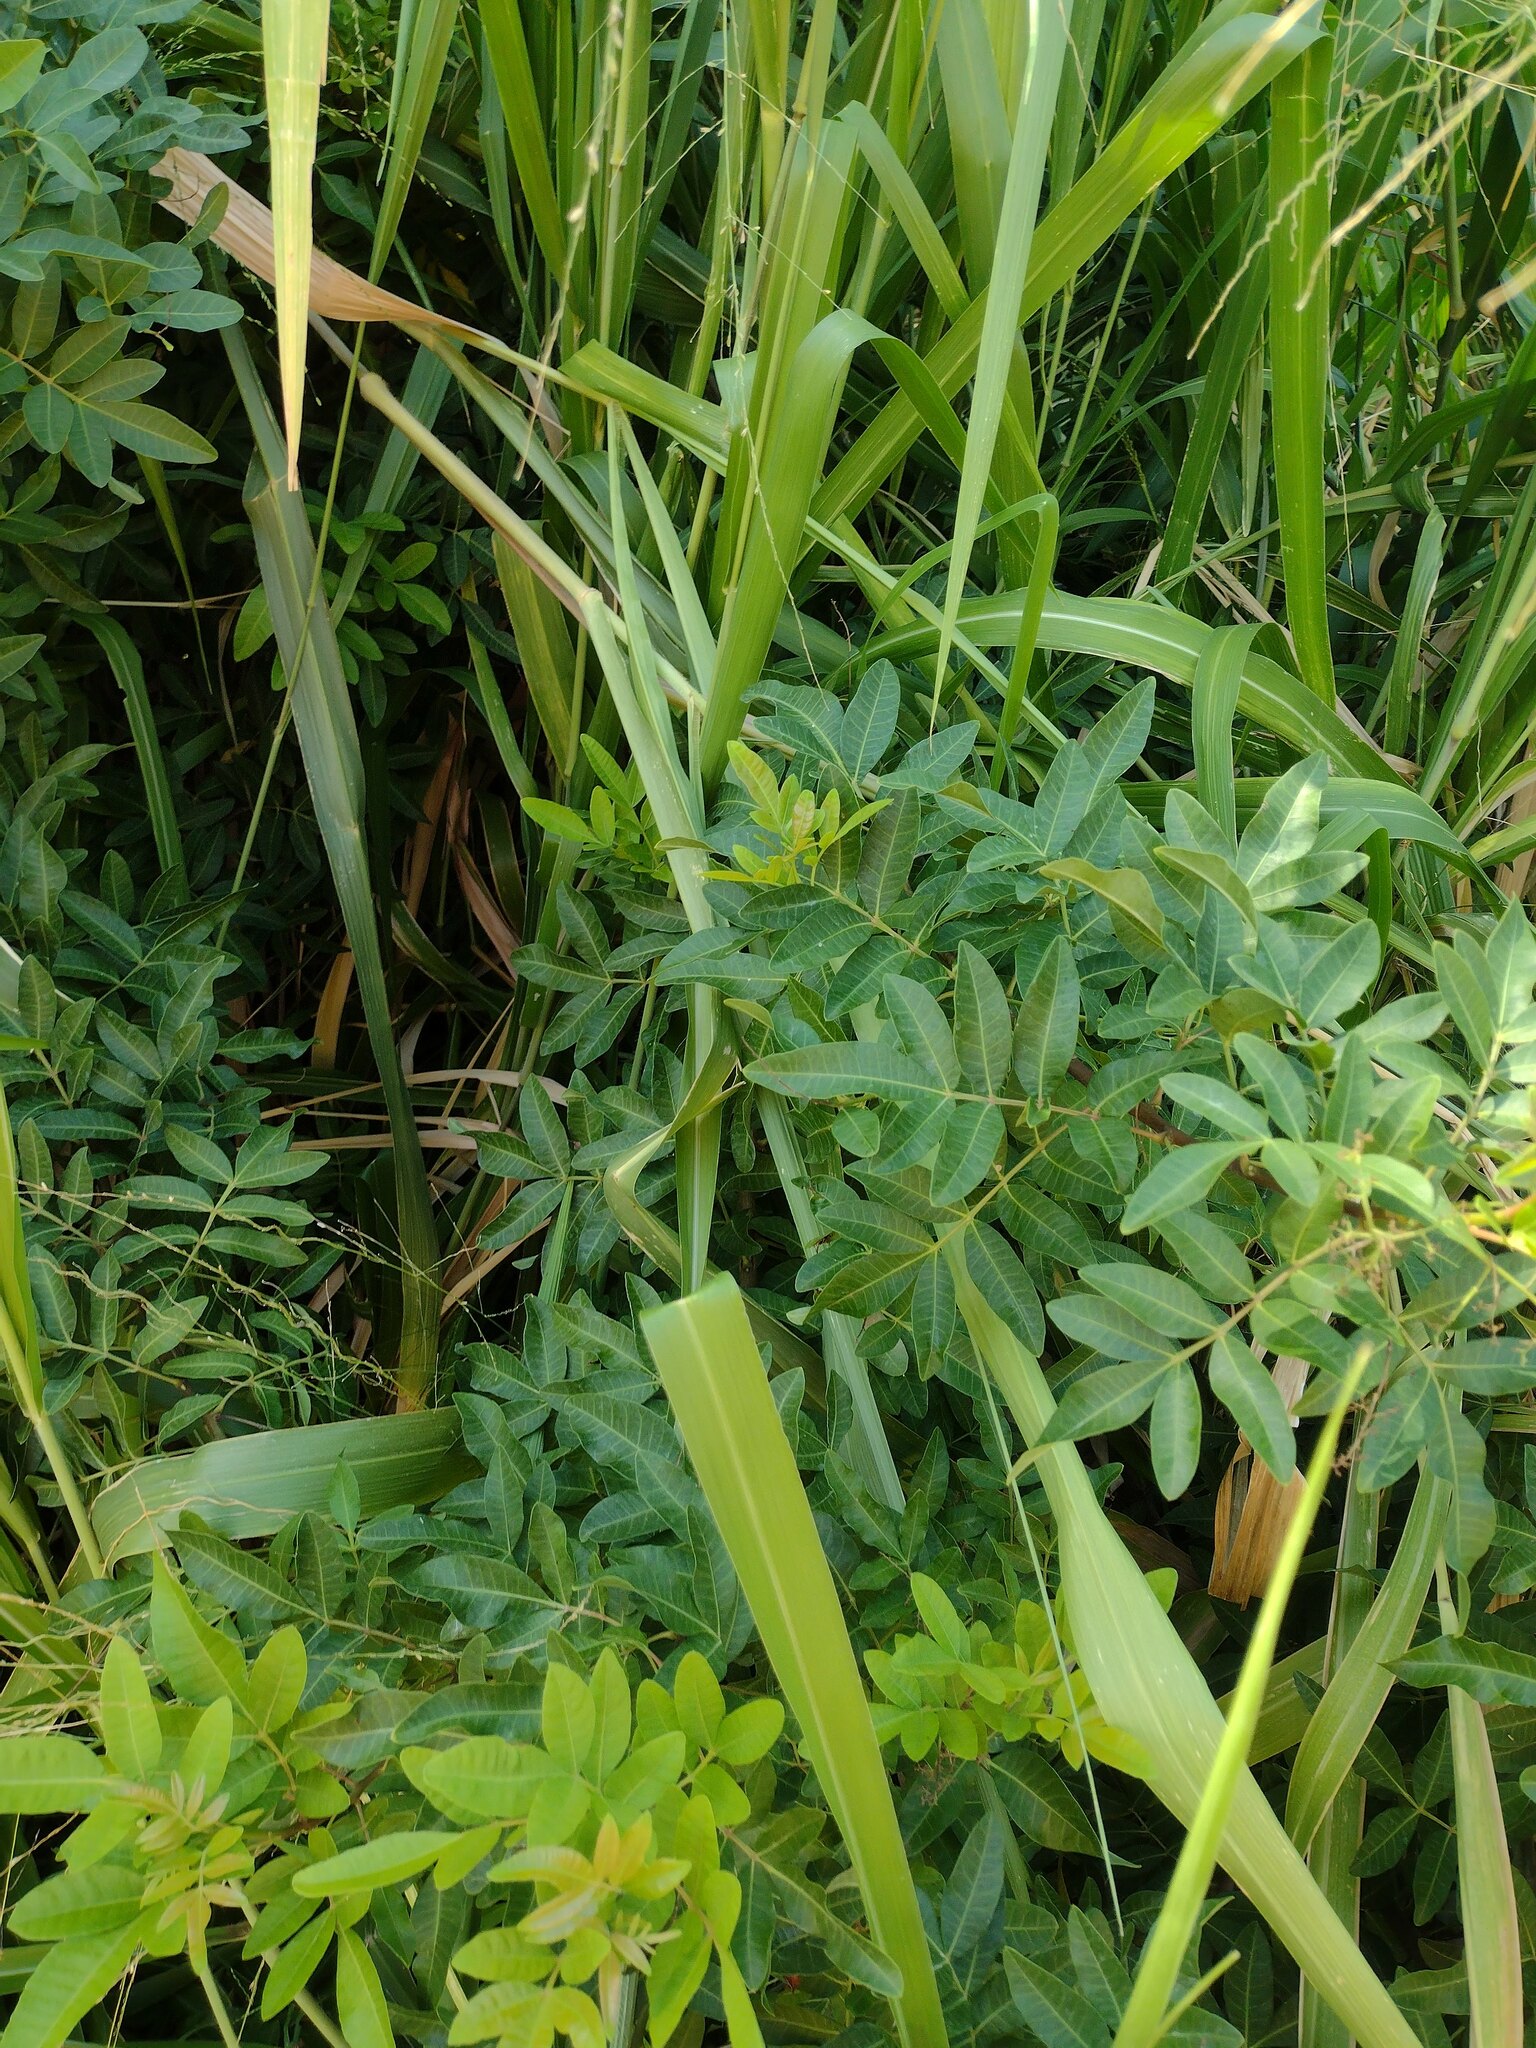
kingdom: Plantae
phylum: Tracheophyta
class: Magnoliopsida
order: Sapindales
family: Anacardiaceae
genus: Schinus
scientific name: Schinus terebinthifolia
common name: Brazilian peppertree
